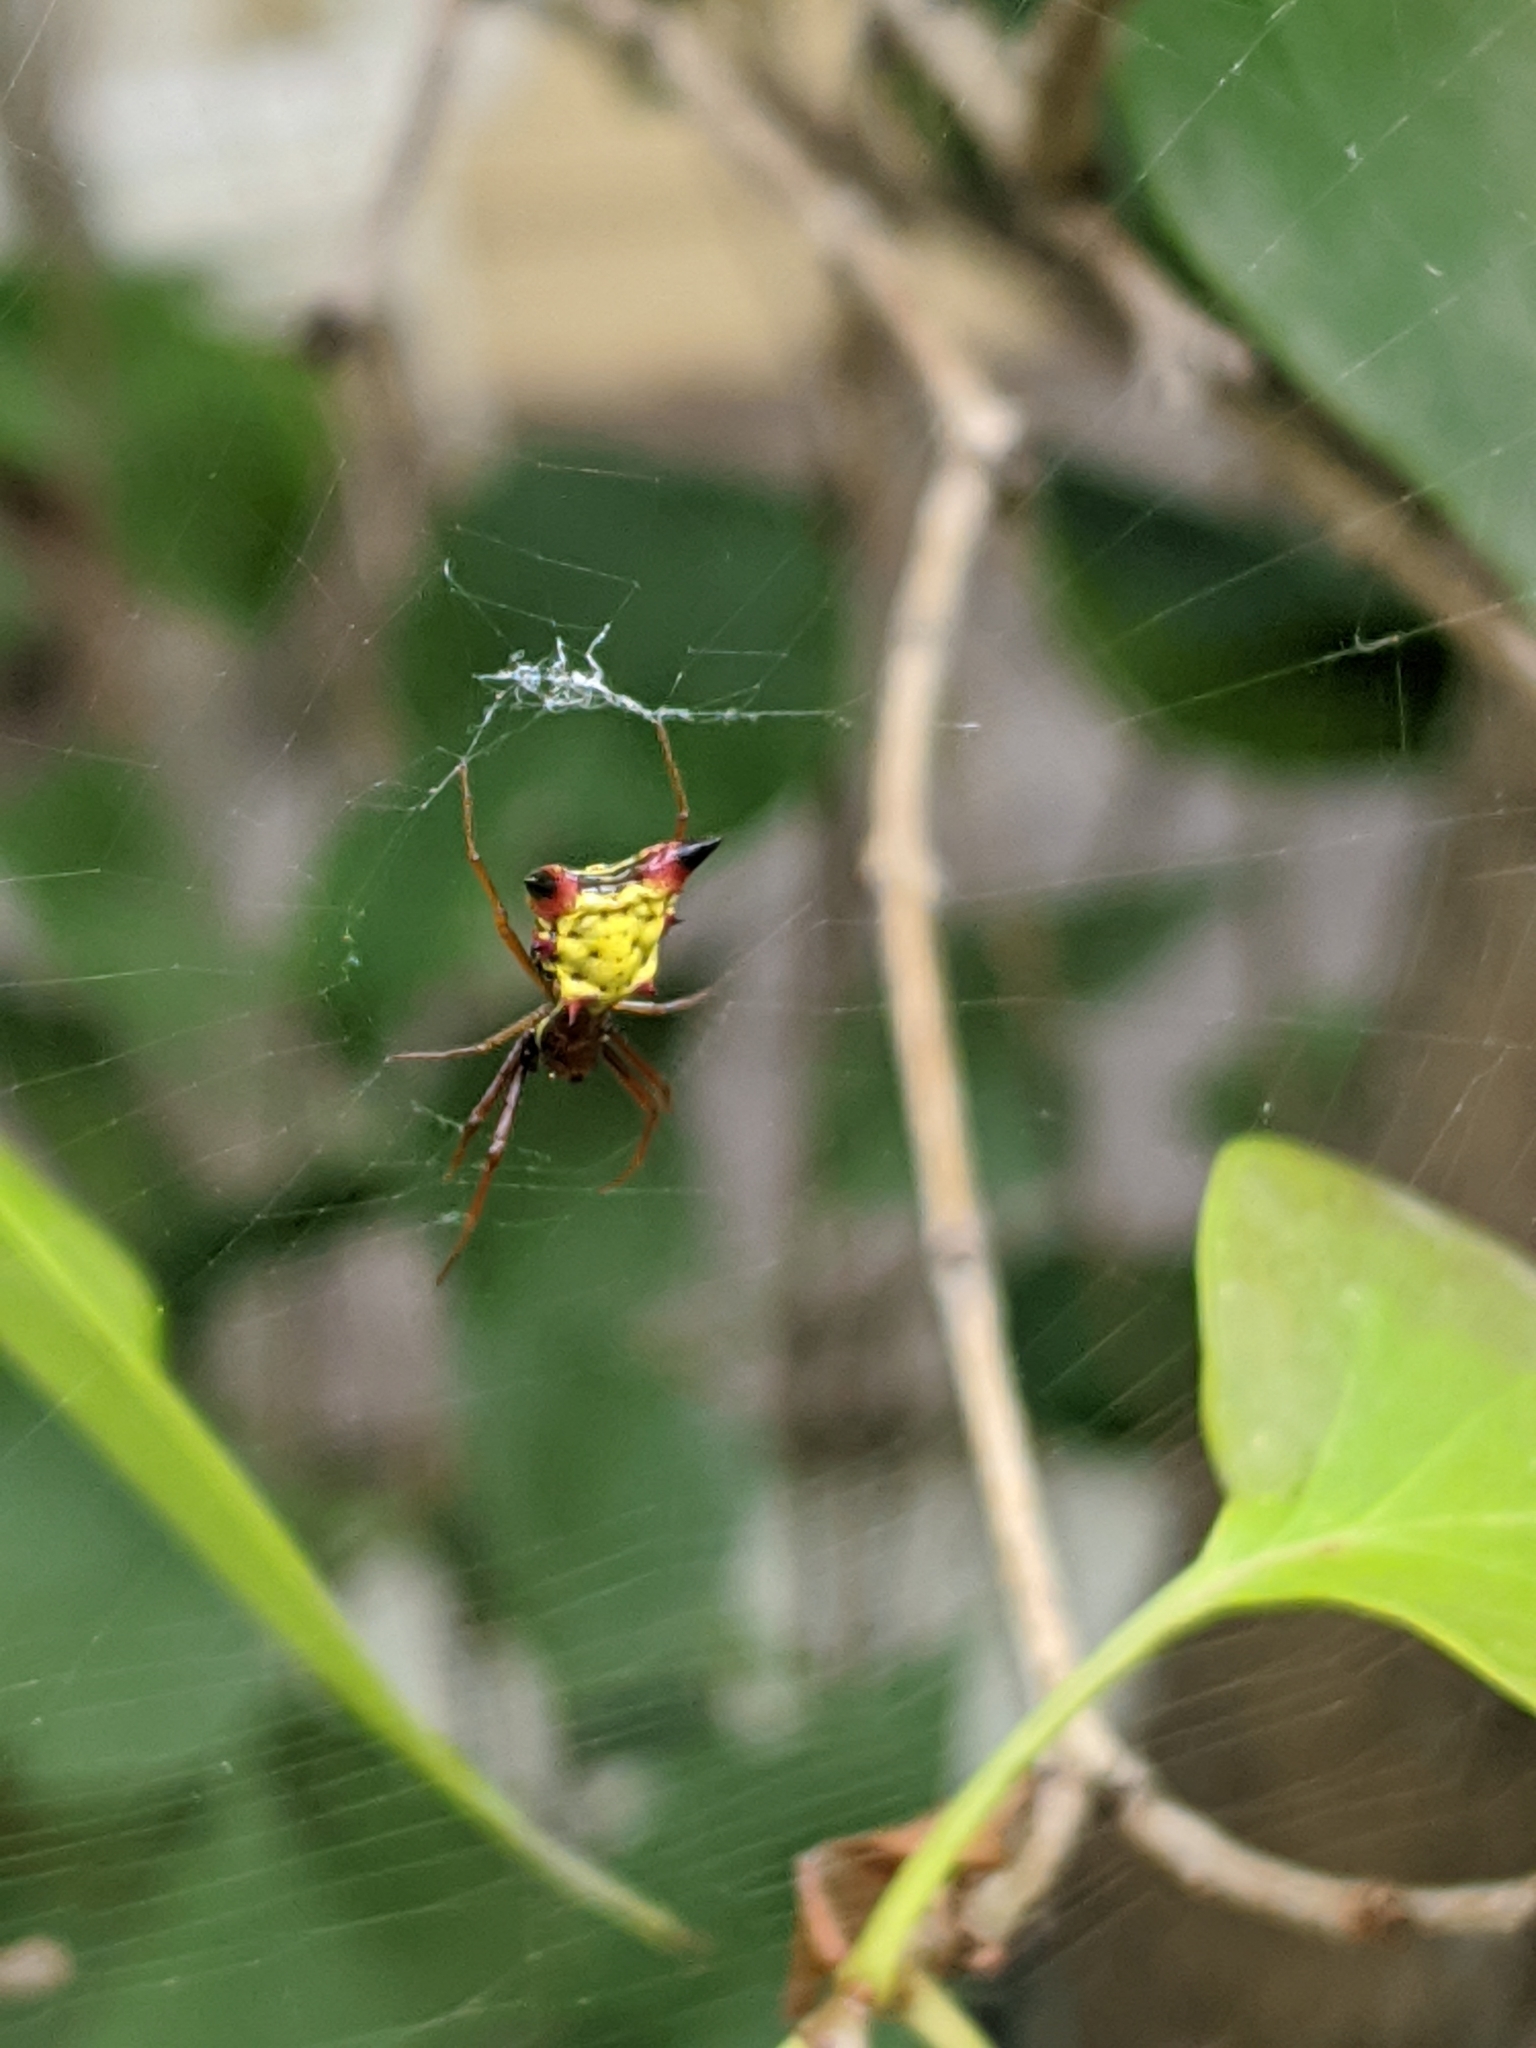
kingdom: Animalia
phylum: Arthropoda
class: Arachnida
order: Araneae
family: Araneidae
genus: Micrathena
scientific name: Micrathena sagittata
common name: Orb weavers
